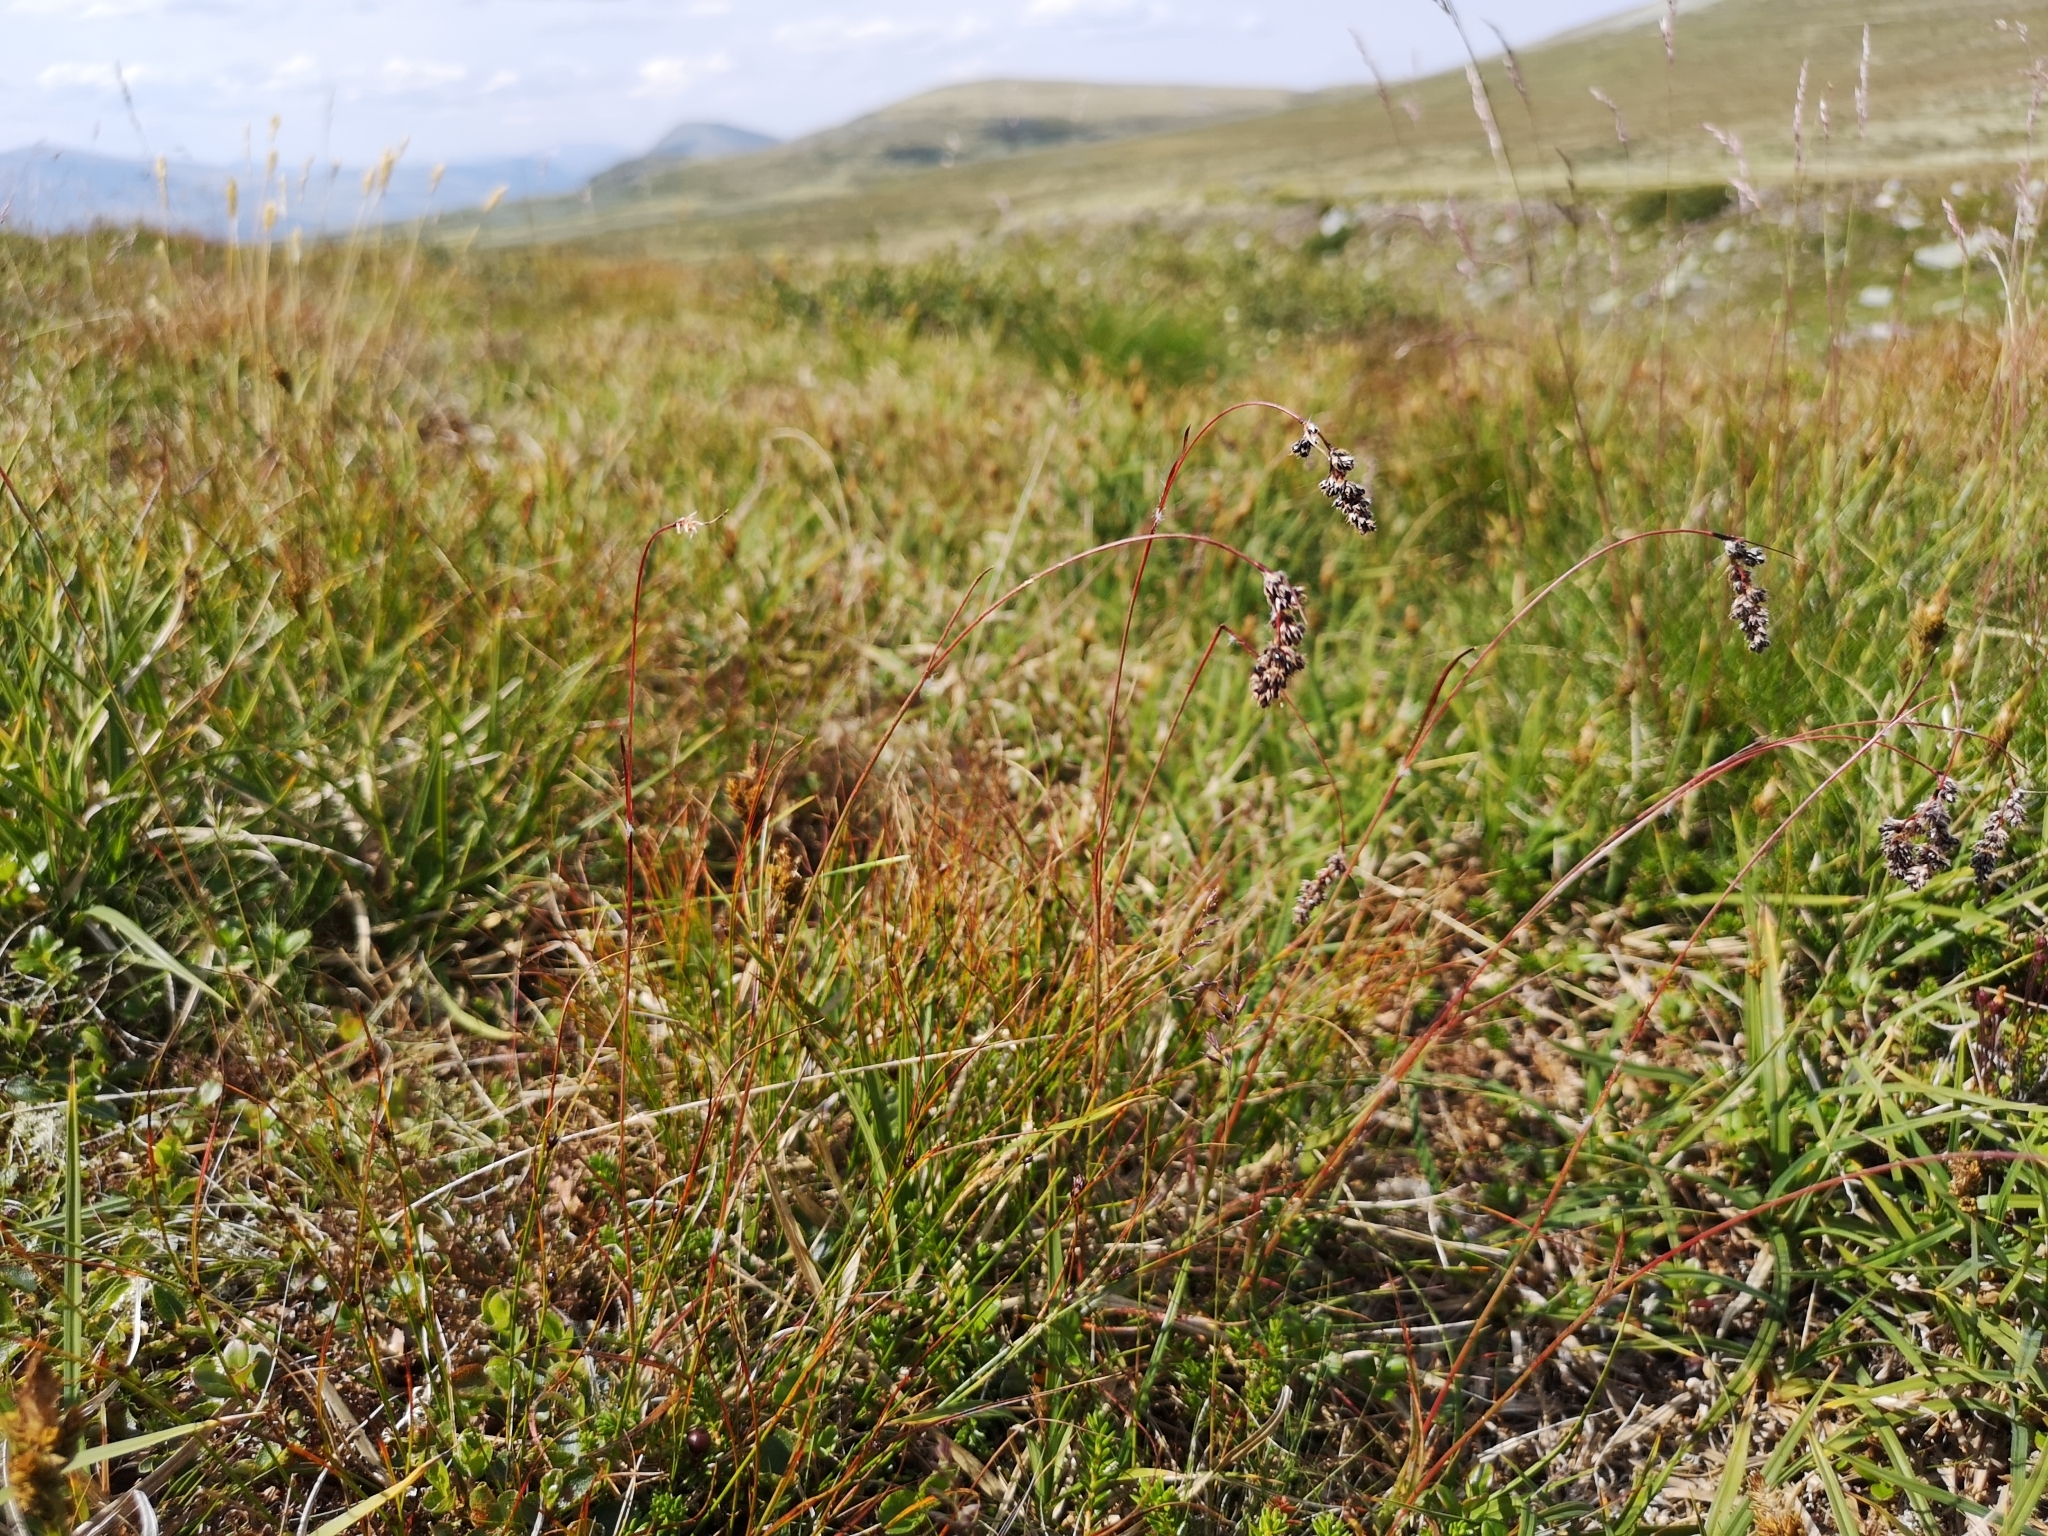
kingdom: Plantae
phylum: Tracheophyta
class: Liliopsida
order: Poales
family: Juncaceae
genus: Luzula
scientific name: Luzula spicata
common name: Spiked wood-rush
